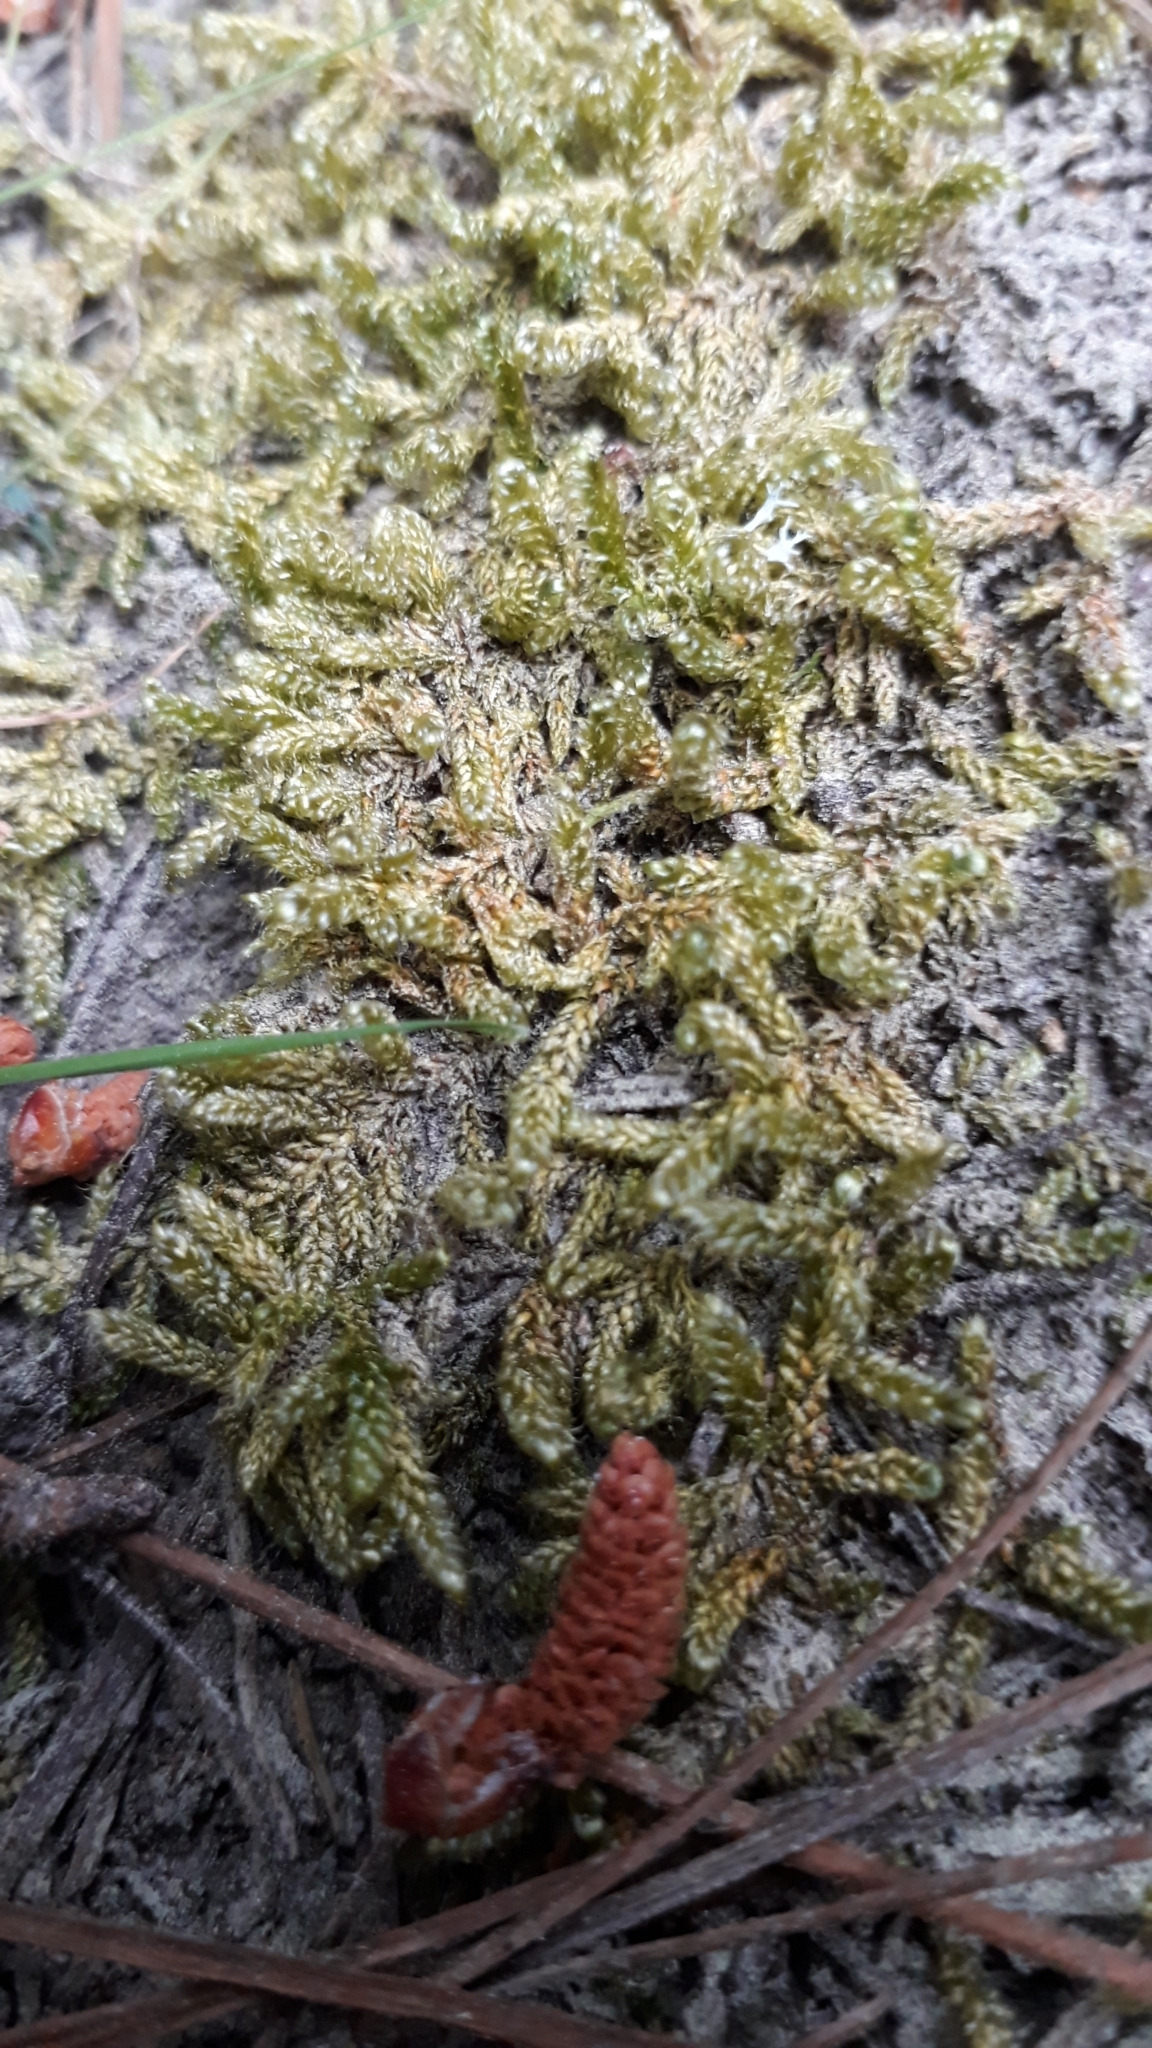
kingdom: Plantae
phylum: Bryophyta
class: Bryopsida
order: Hypnales
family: Hypnaceae
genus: Hypnum
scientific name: Hypnum cupressiforme
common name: Cypress-leaved plait-moss
